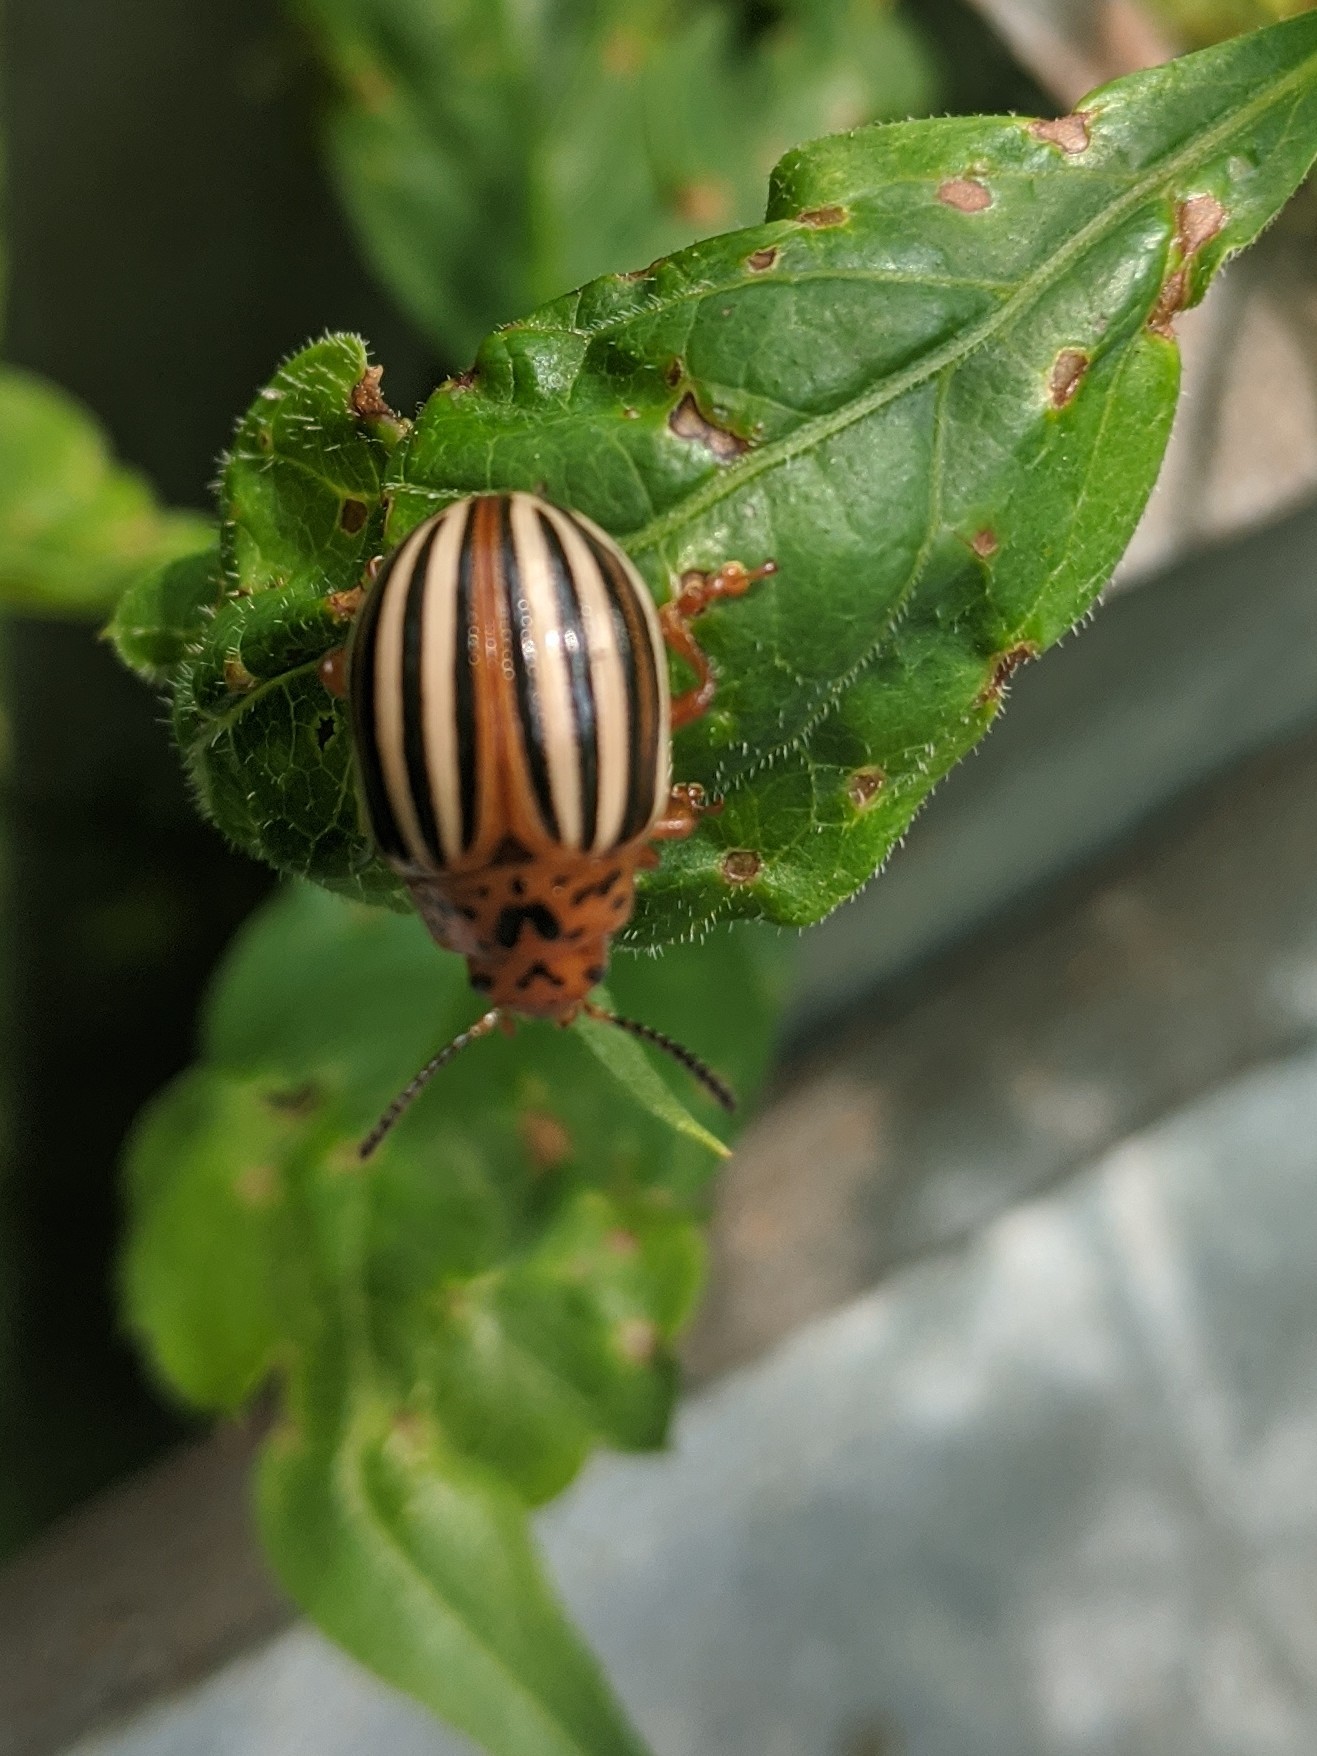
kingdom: Animalia
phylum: Arthropoda
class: Insecta
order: Coleoptera
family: Chrysomelidae
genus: Leptinotarsa
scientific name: Leptinotarsa juncta
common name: False potato beetle
